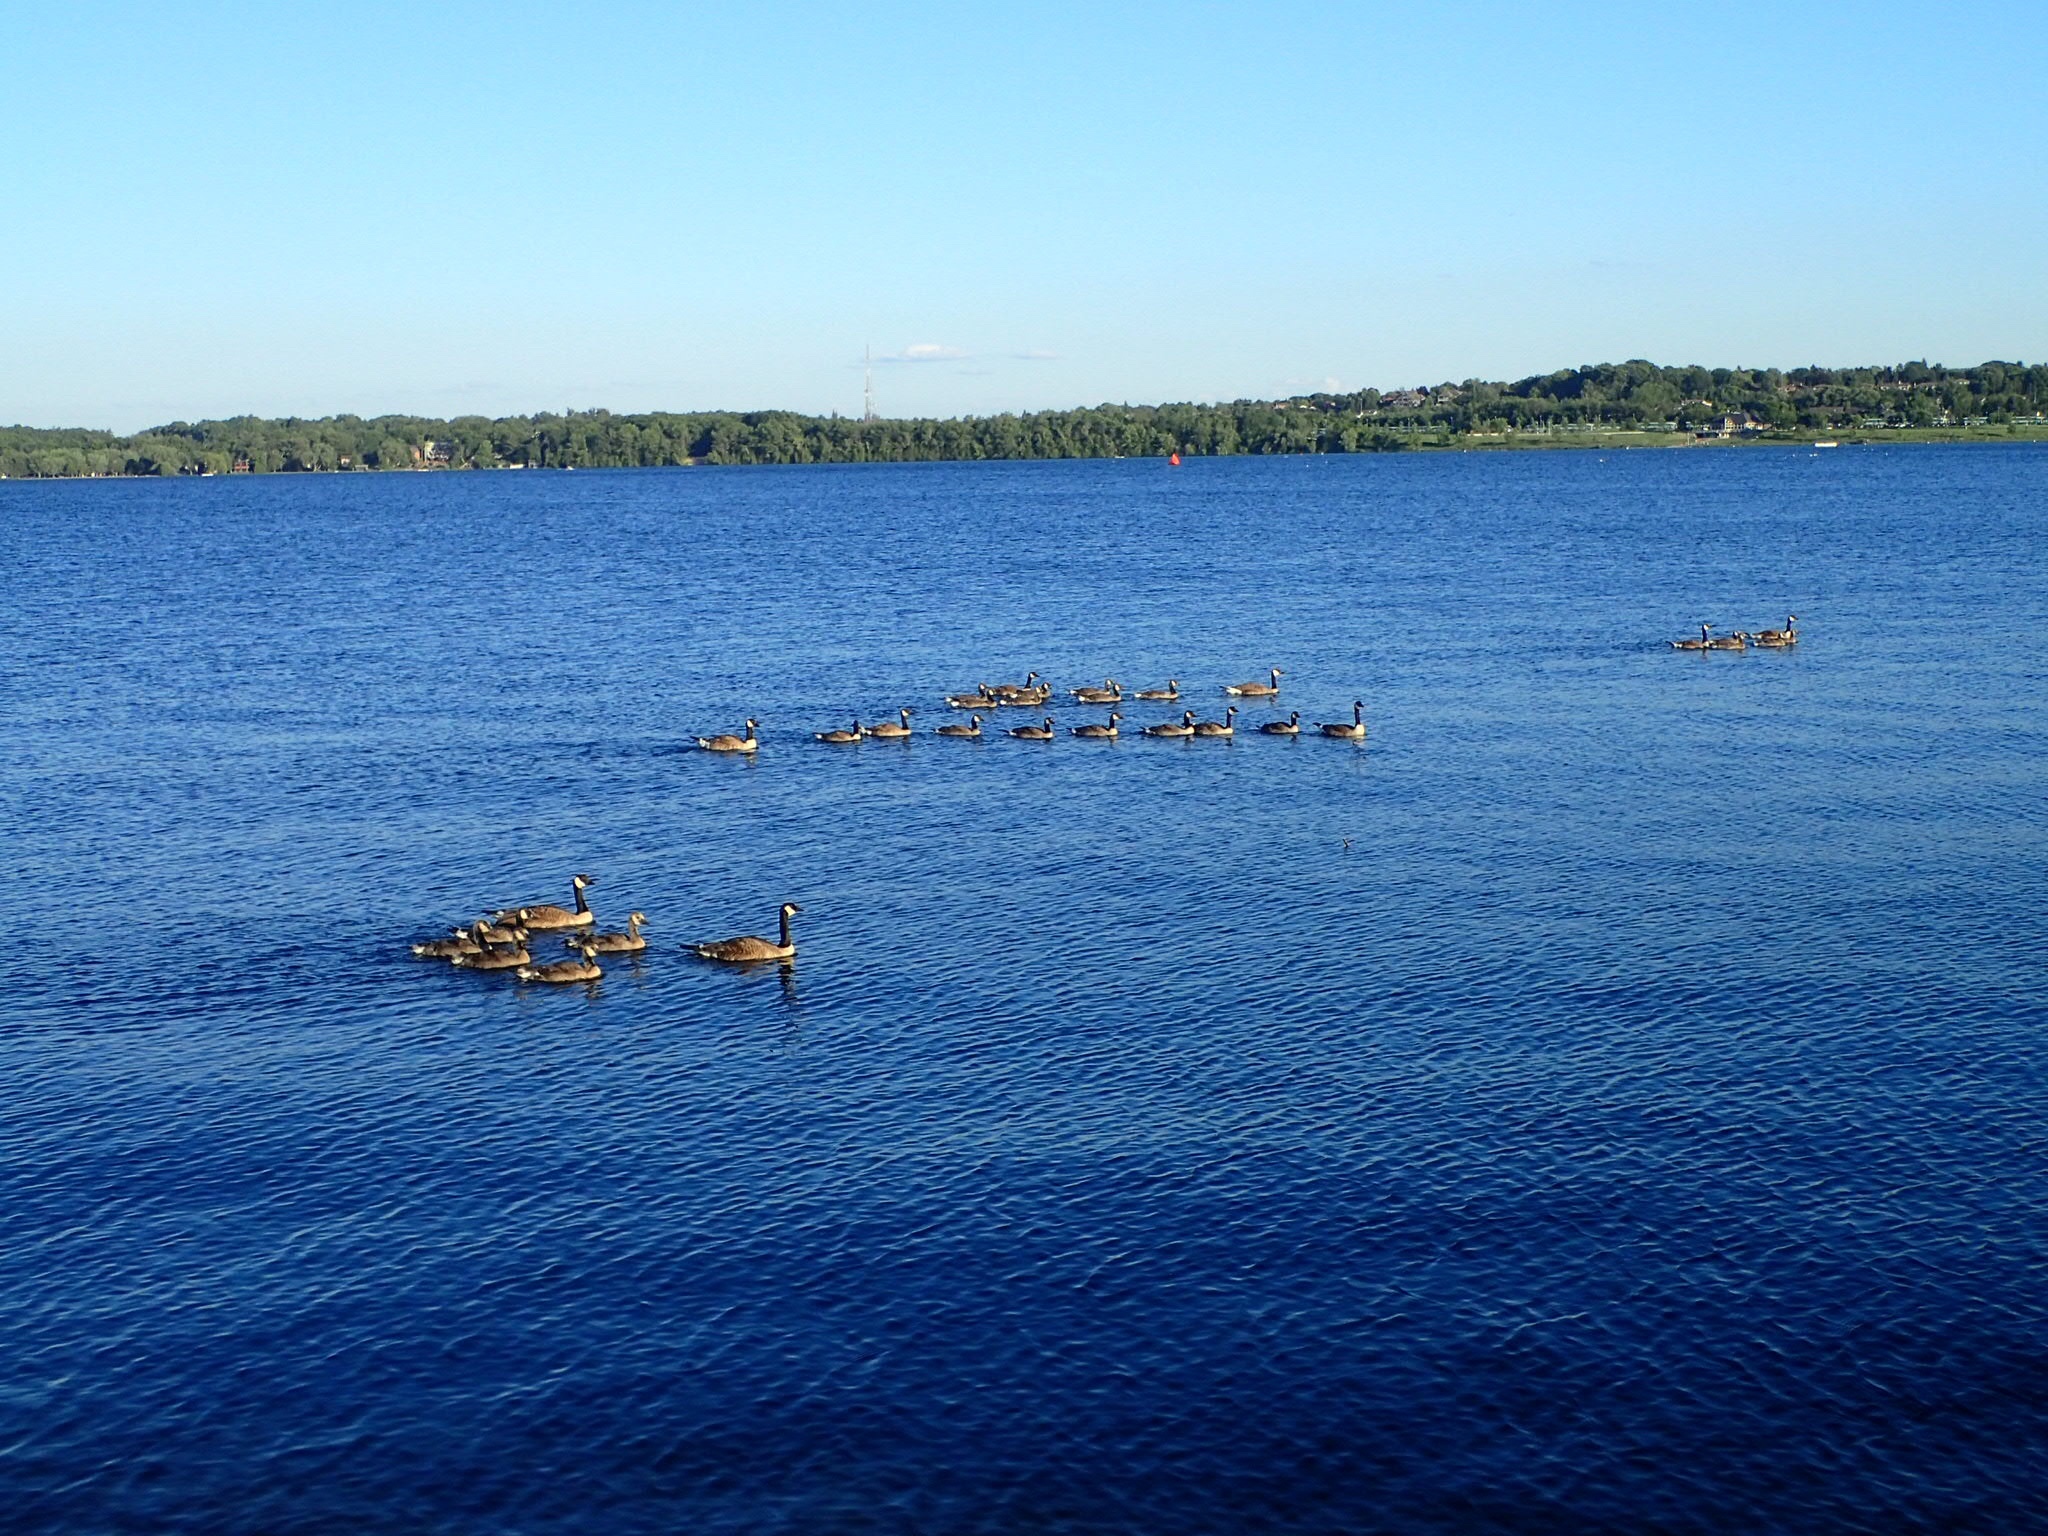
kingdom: Animalia
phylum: Chordata
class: Aves
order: Anseriformes
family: Anatidae
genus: Branta
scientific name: Branta canadensis
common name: Canada goose
